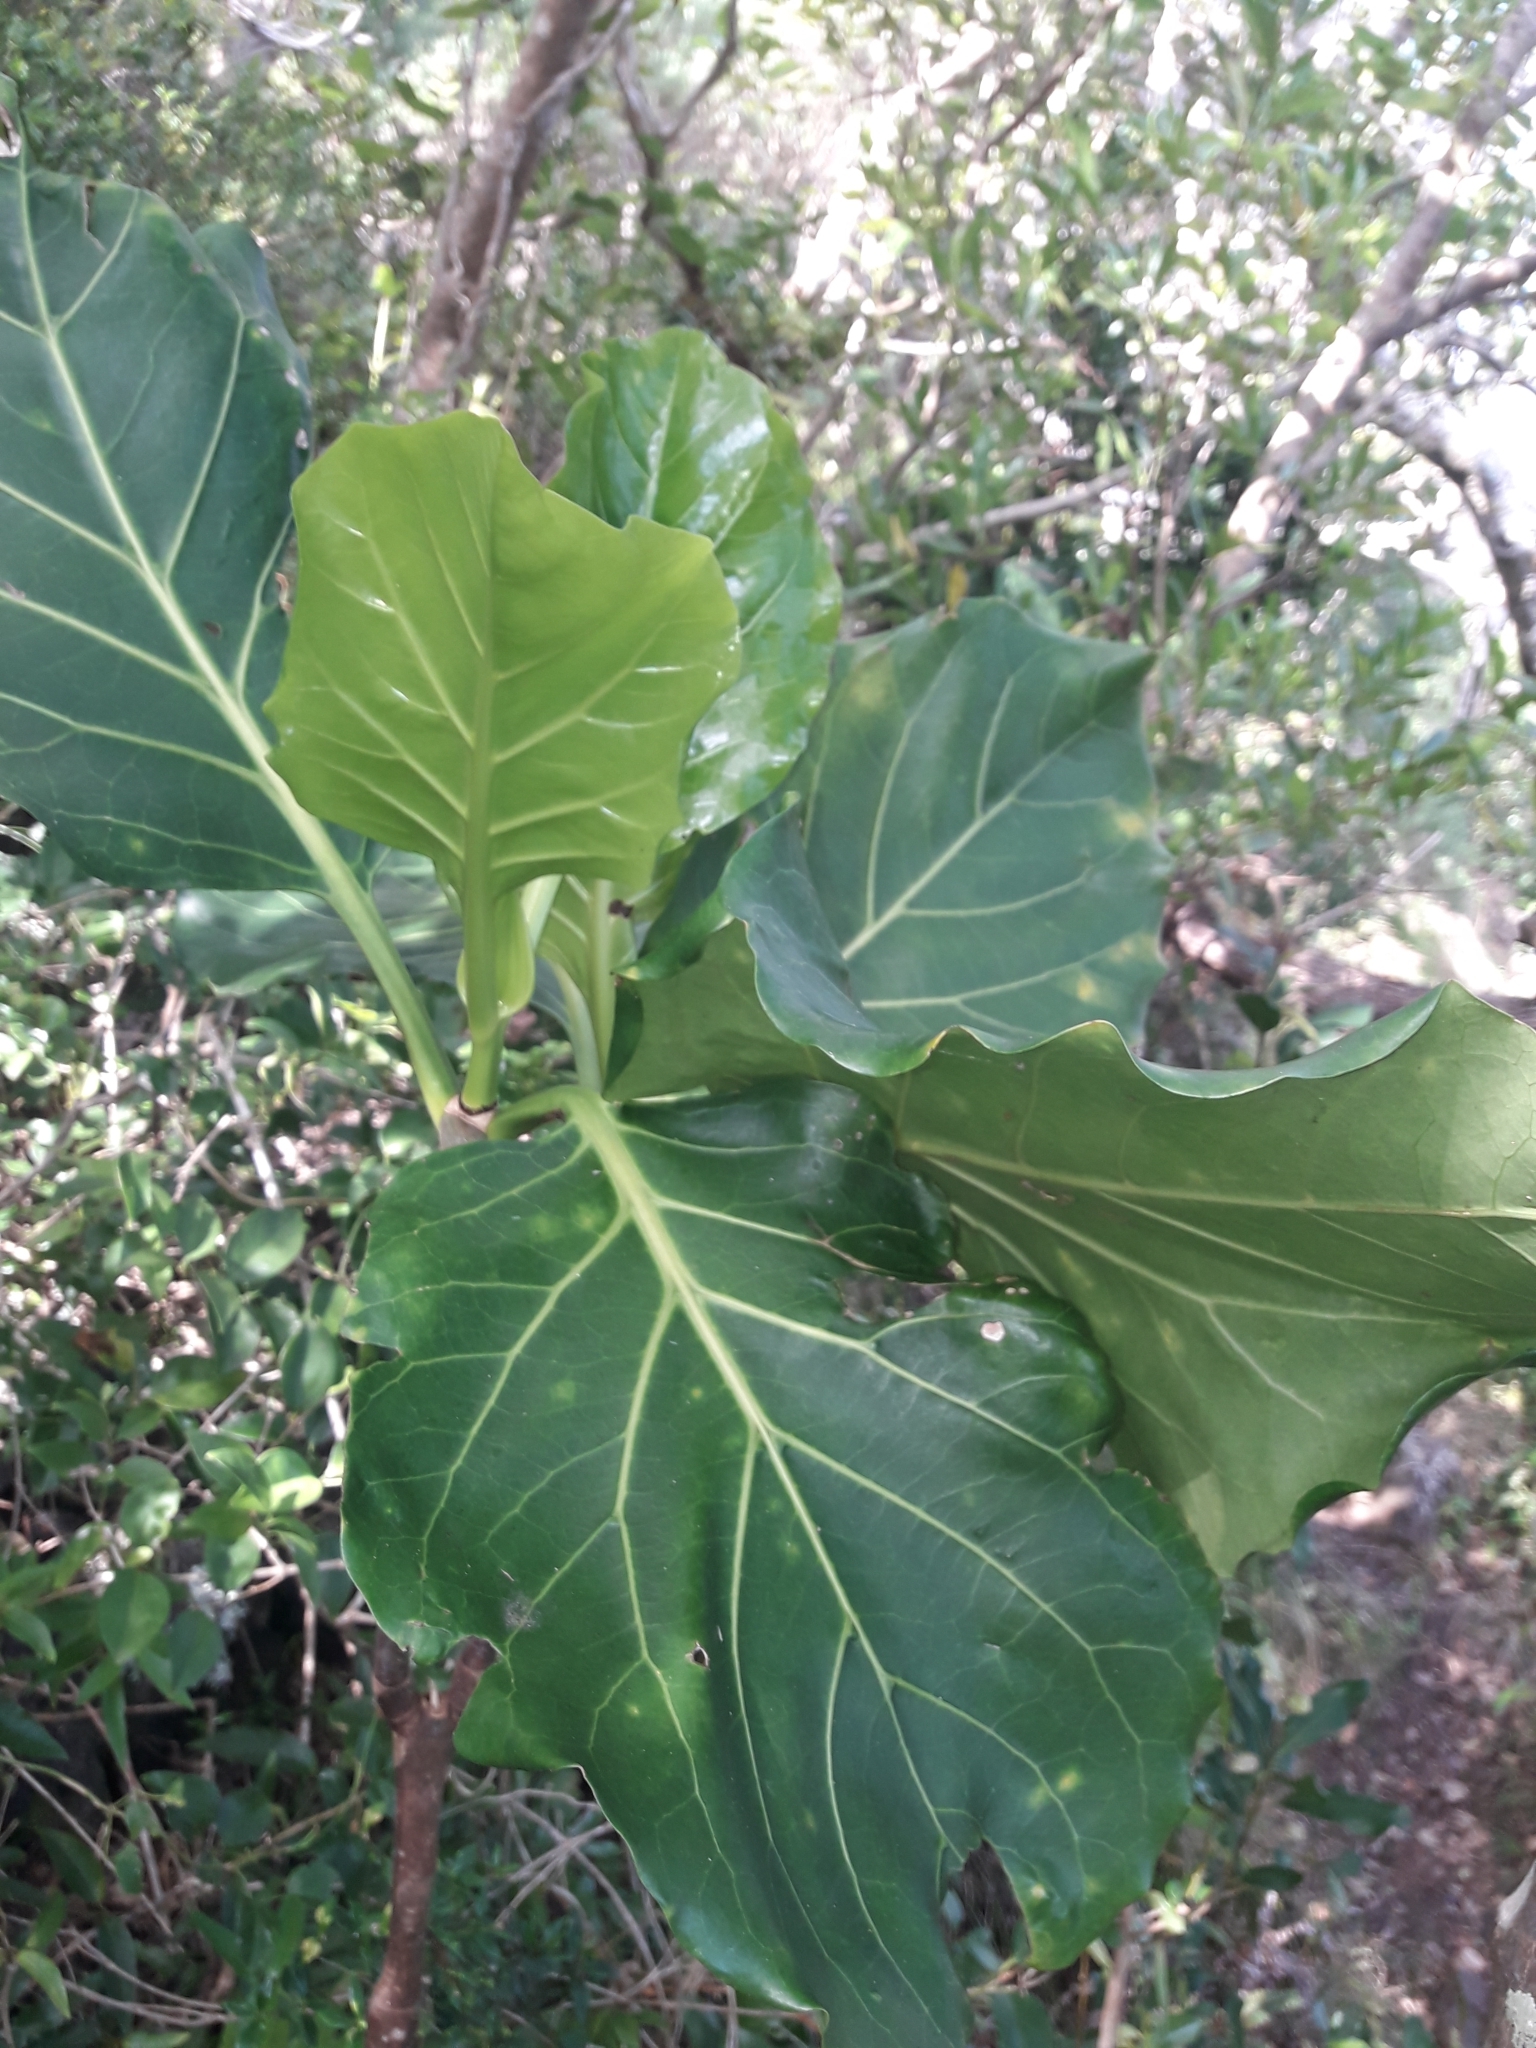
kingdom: Plantae
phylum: Tracheophyta
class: Magnoliopsida
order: Gentianales
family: Rubiaceae
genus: Atractocarpus
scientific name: Atractocarpus stipularis
